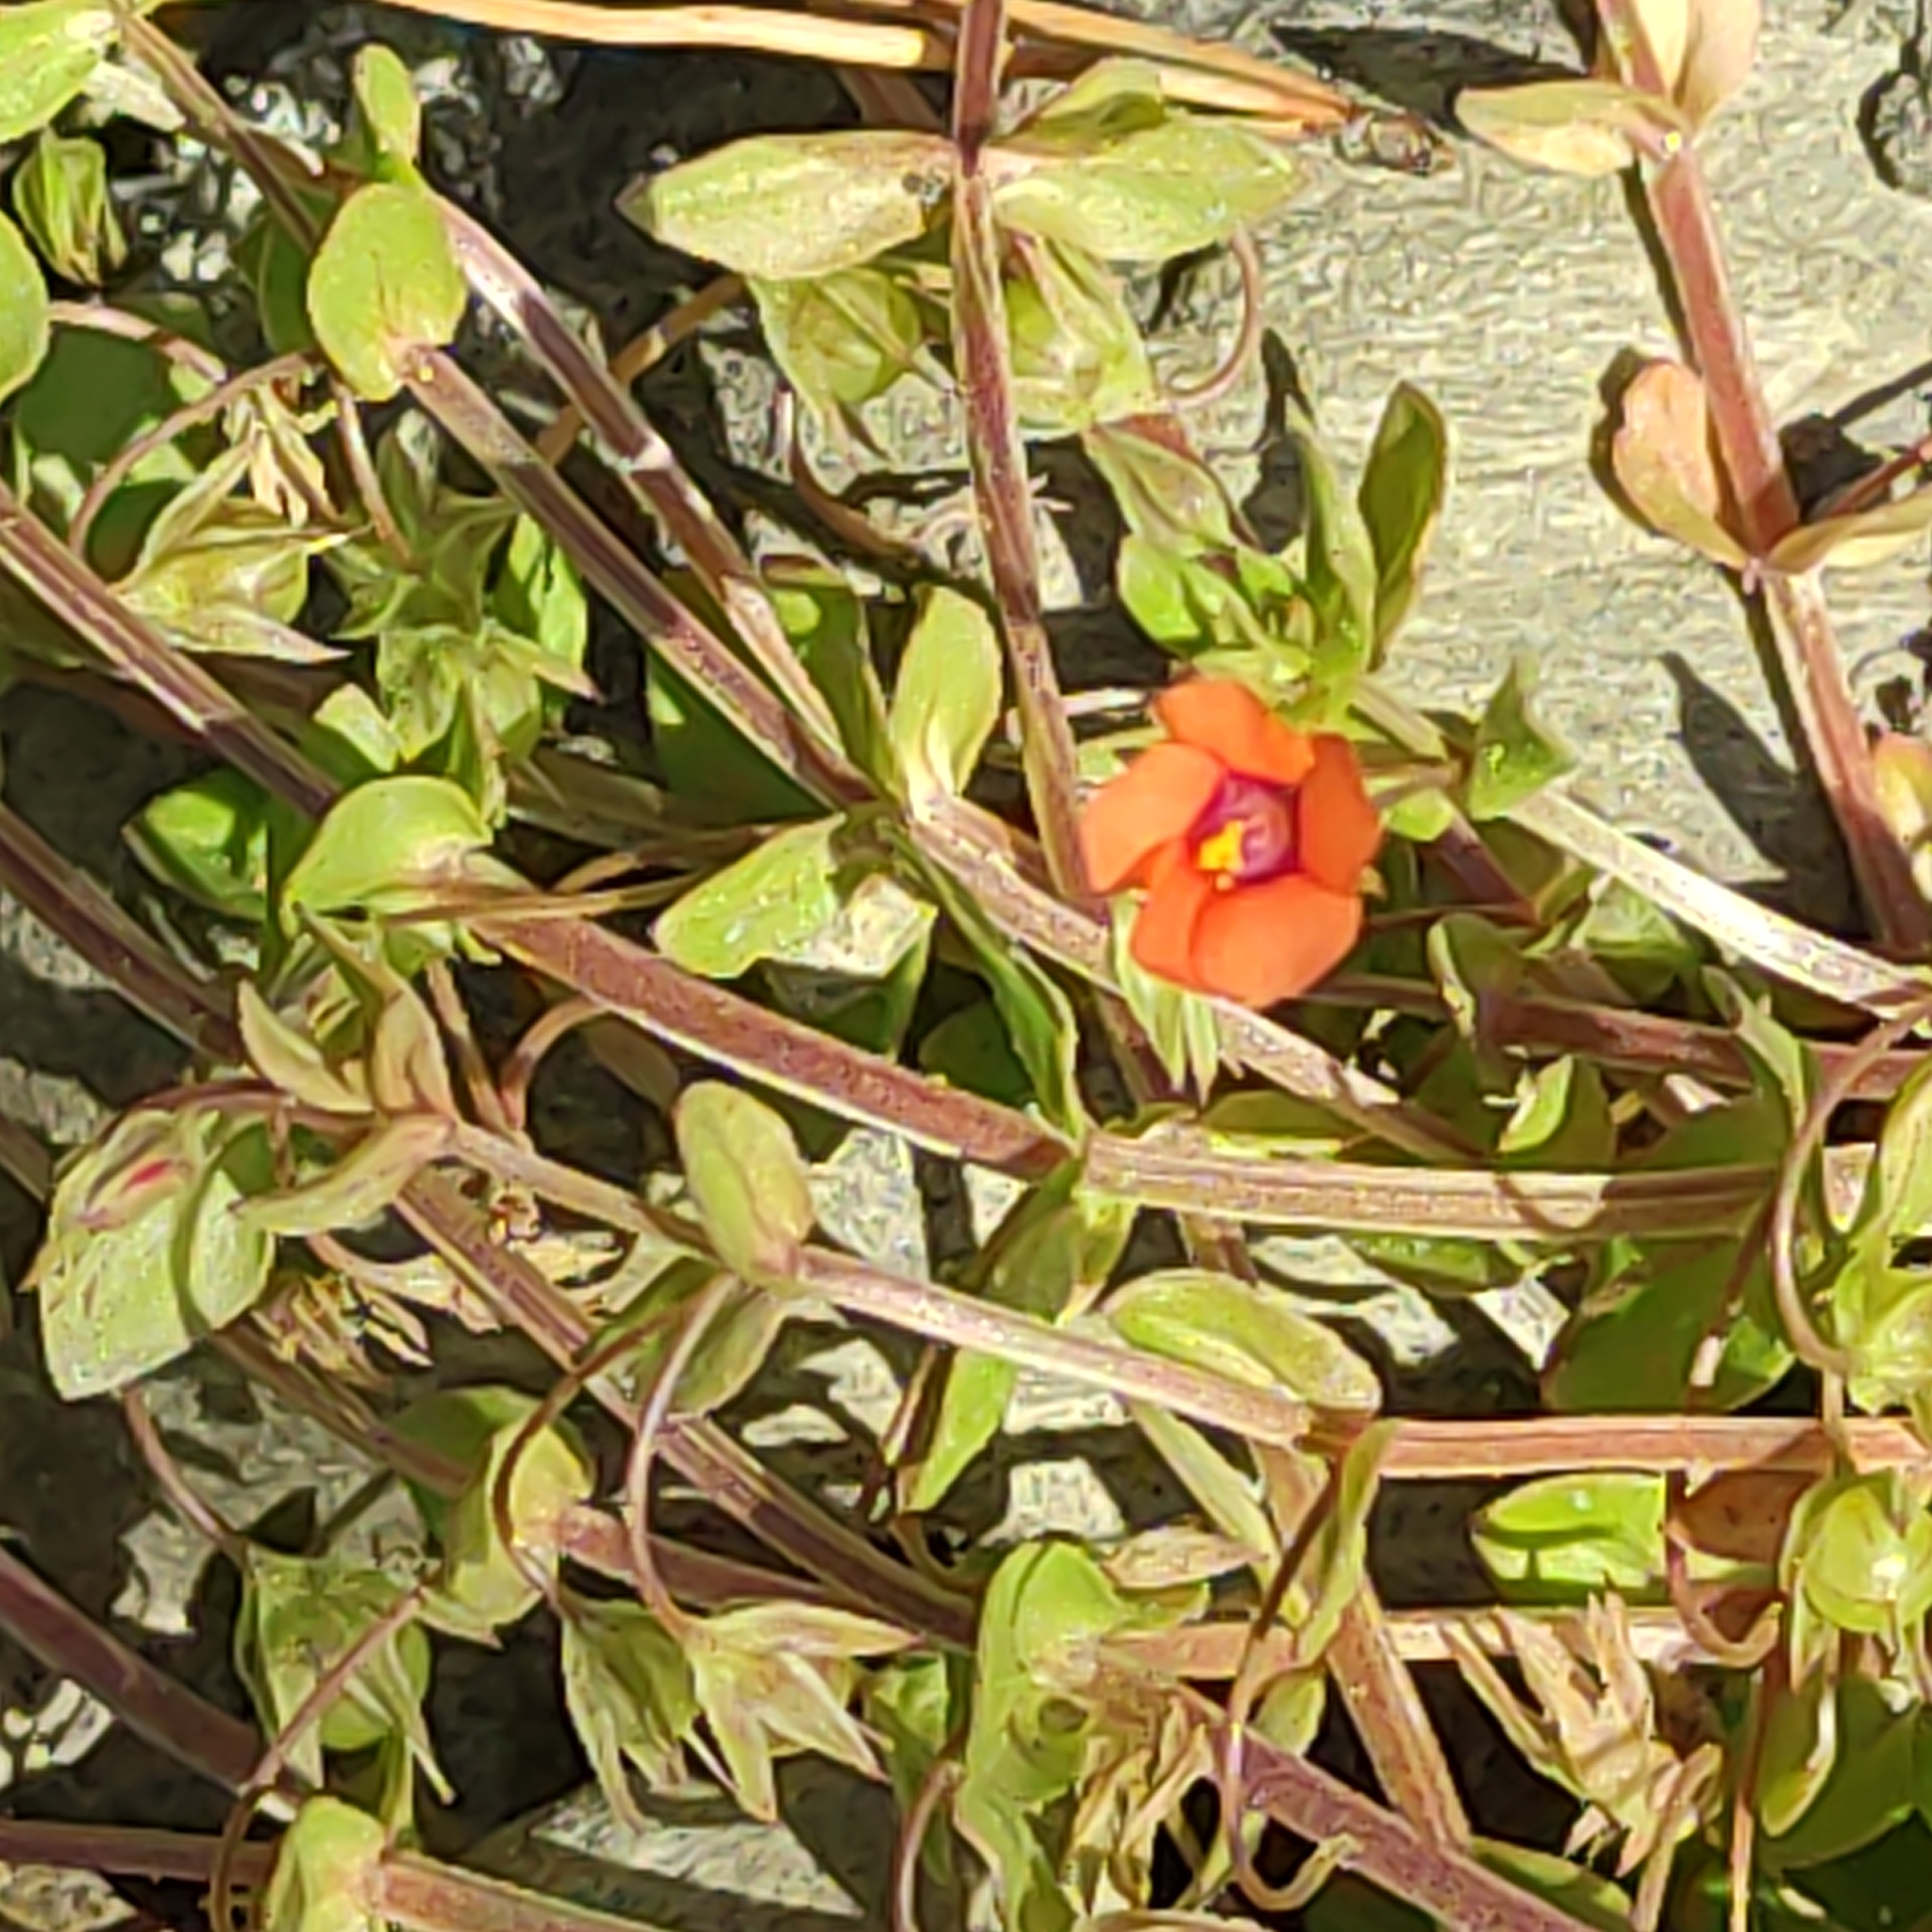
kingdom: Plantae
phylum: Tracheophyta
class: Magnoliopsida
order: Ericales
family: Primulaceae
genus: Lysimachia
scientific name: Lysimachia arvensis
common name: Scarlet pimpernel
